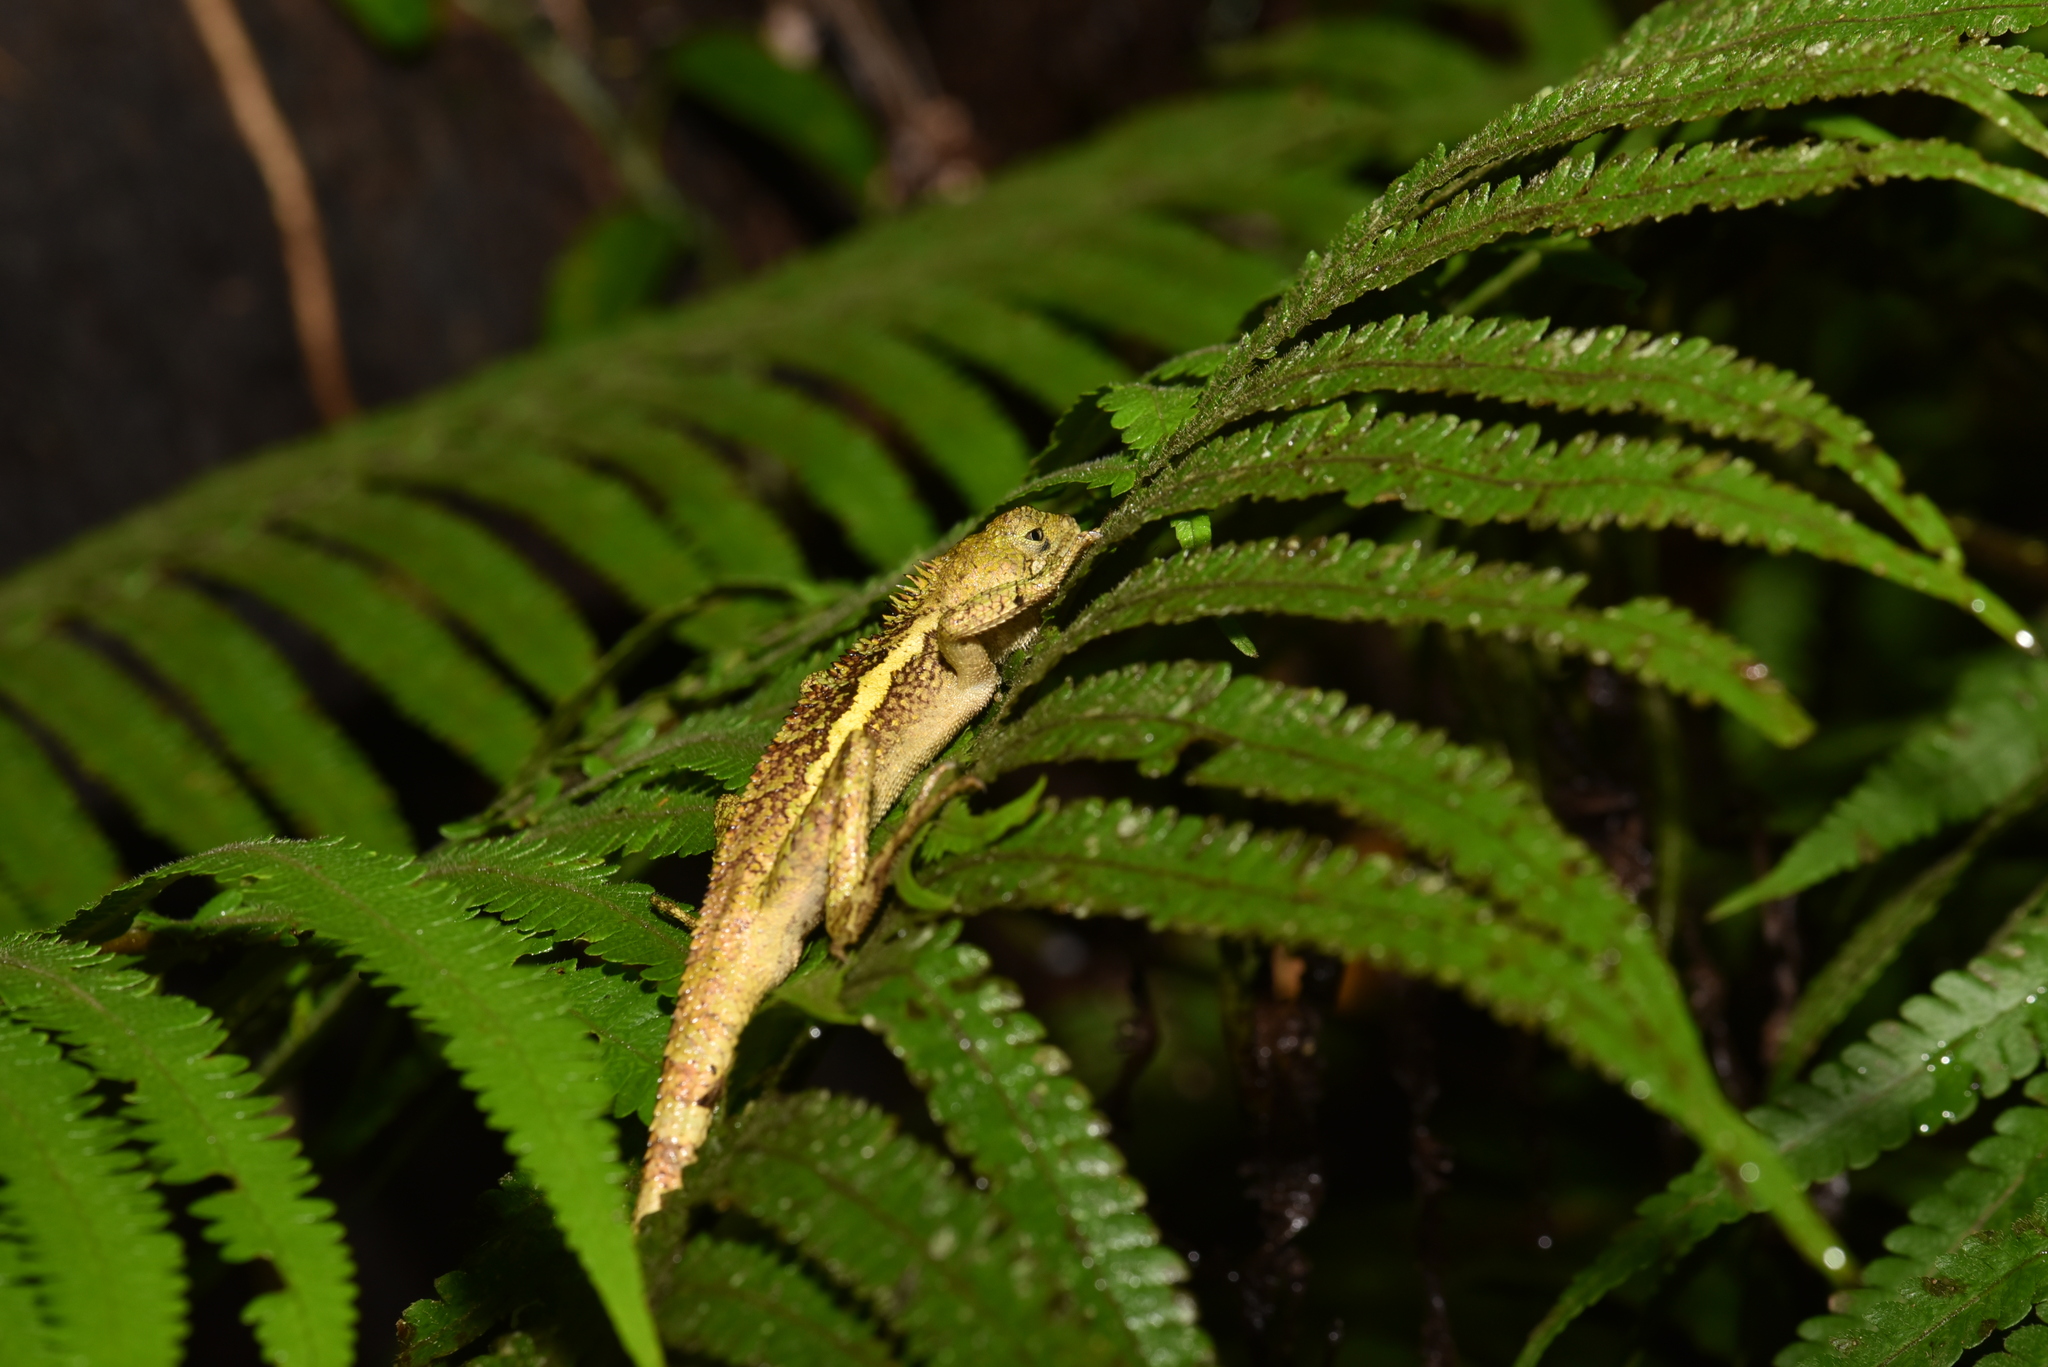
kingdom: Animalia
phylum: Chordata
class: Squamata
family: Agamidae
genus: Diploderma
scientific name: Diploderma swinhonis
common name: Taiwan japalure
